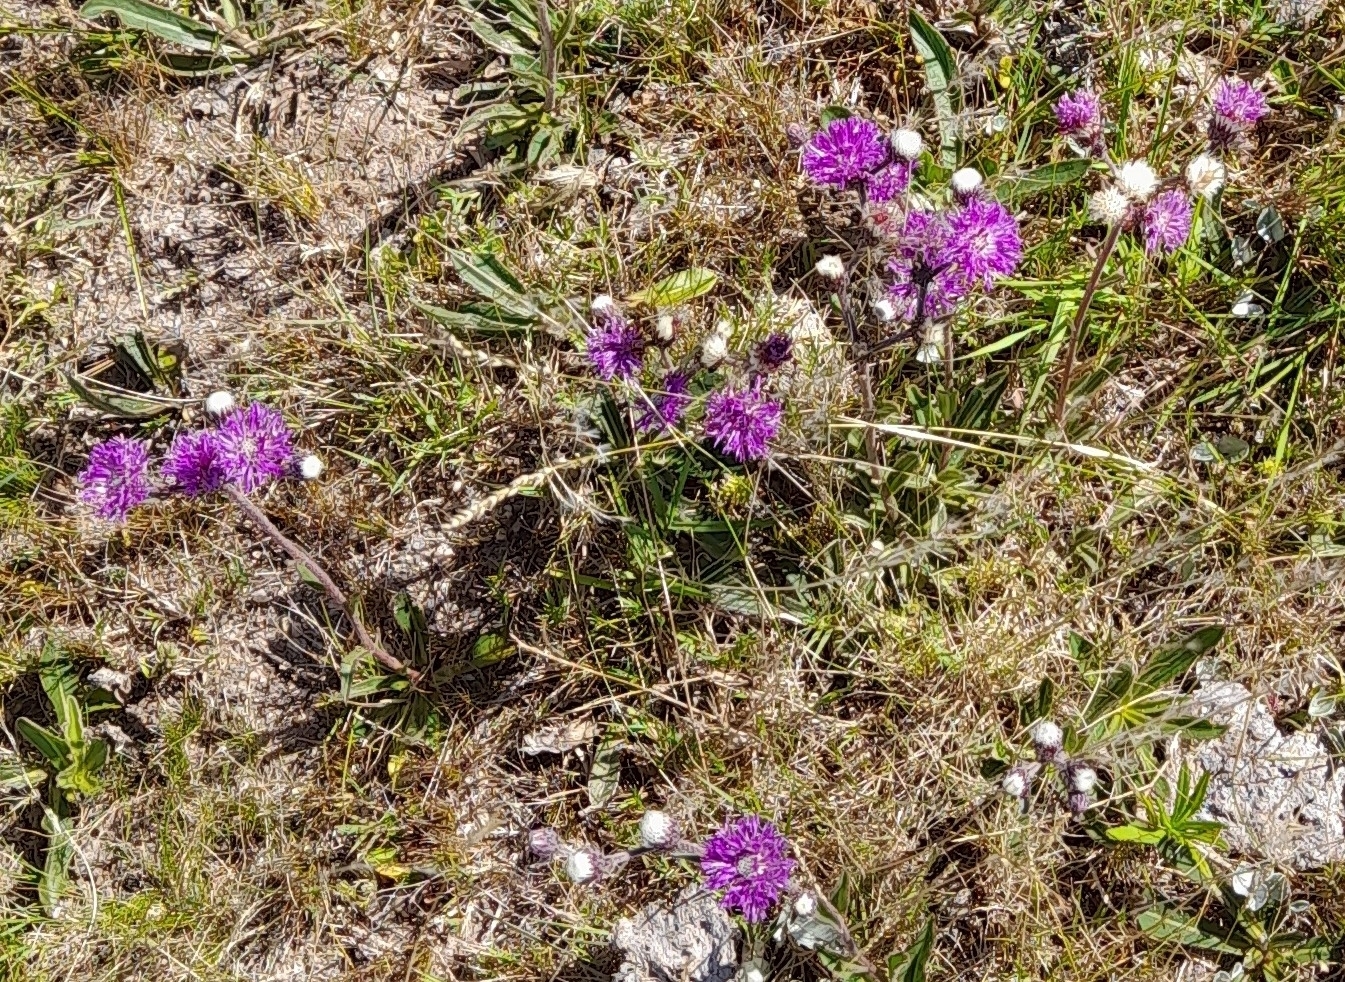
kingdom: Plantae
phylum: Tracheophyta
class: Magnoliopsida
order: Asterales
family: Asteraceae
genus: Chrysolaena
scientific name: Chrysolaena flexuosa
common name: Zig-zag vernonia
